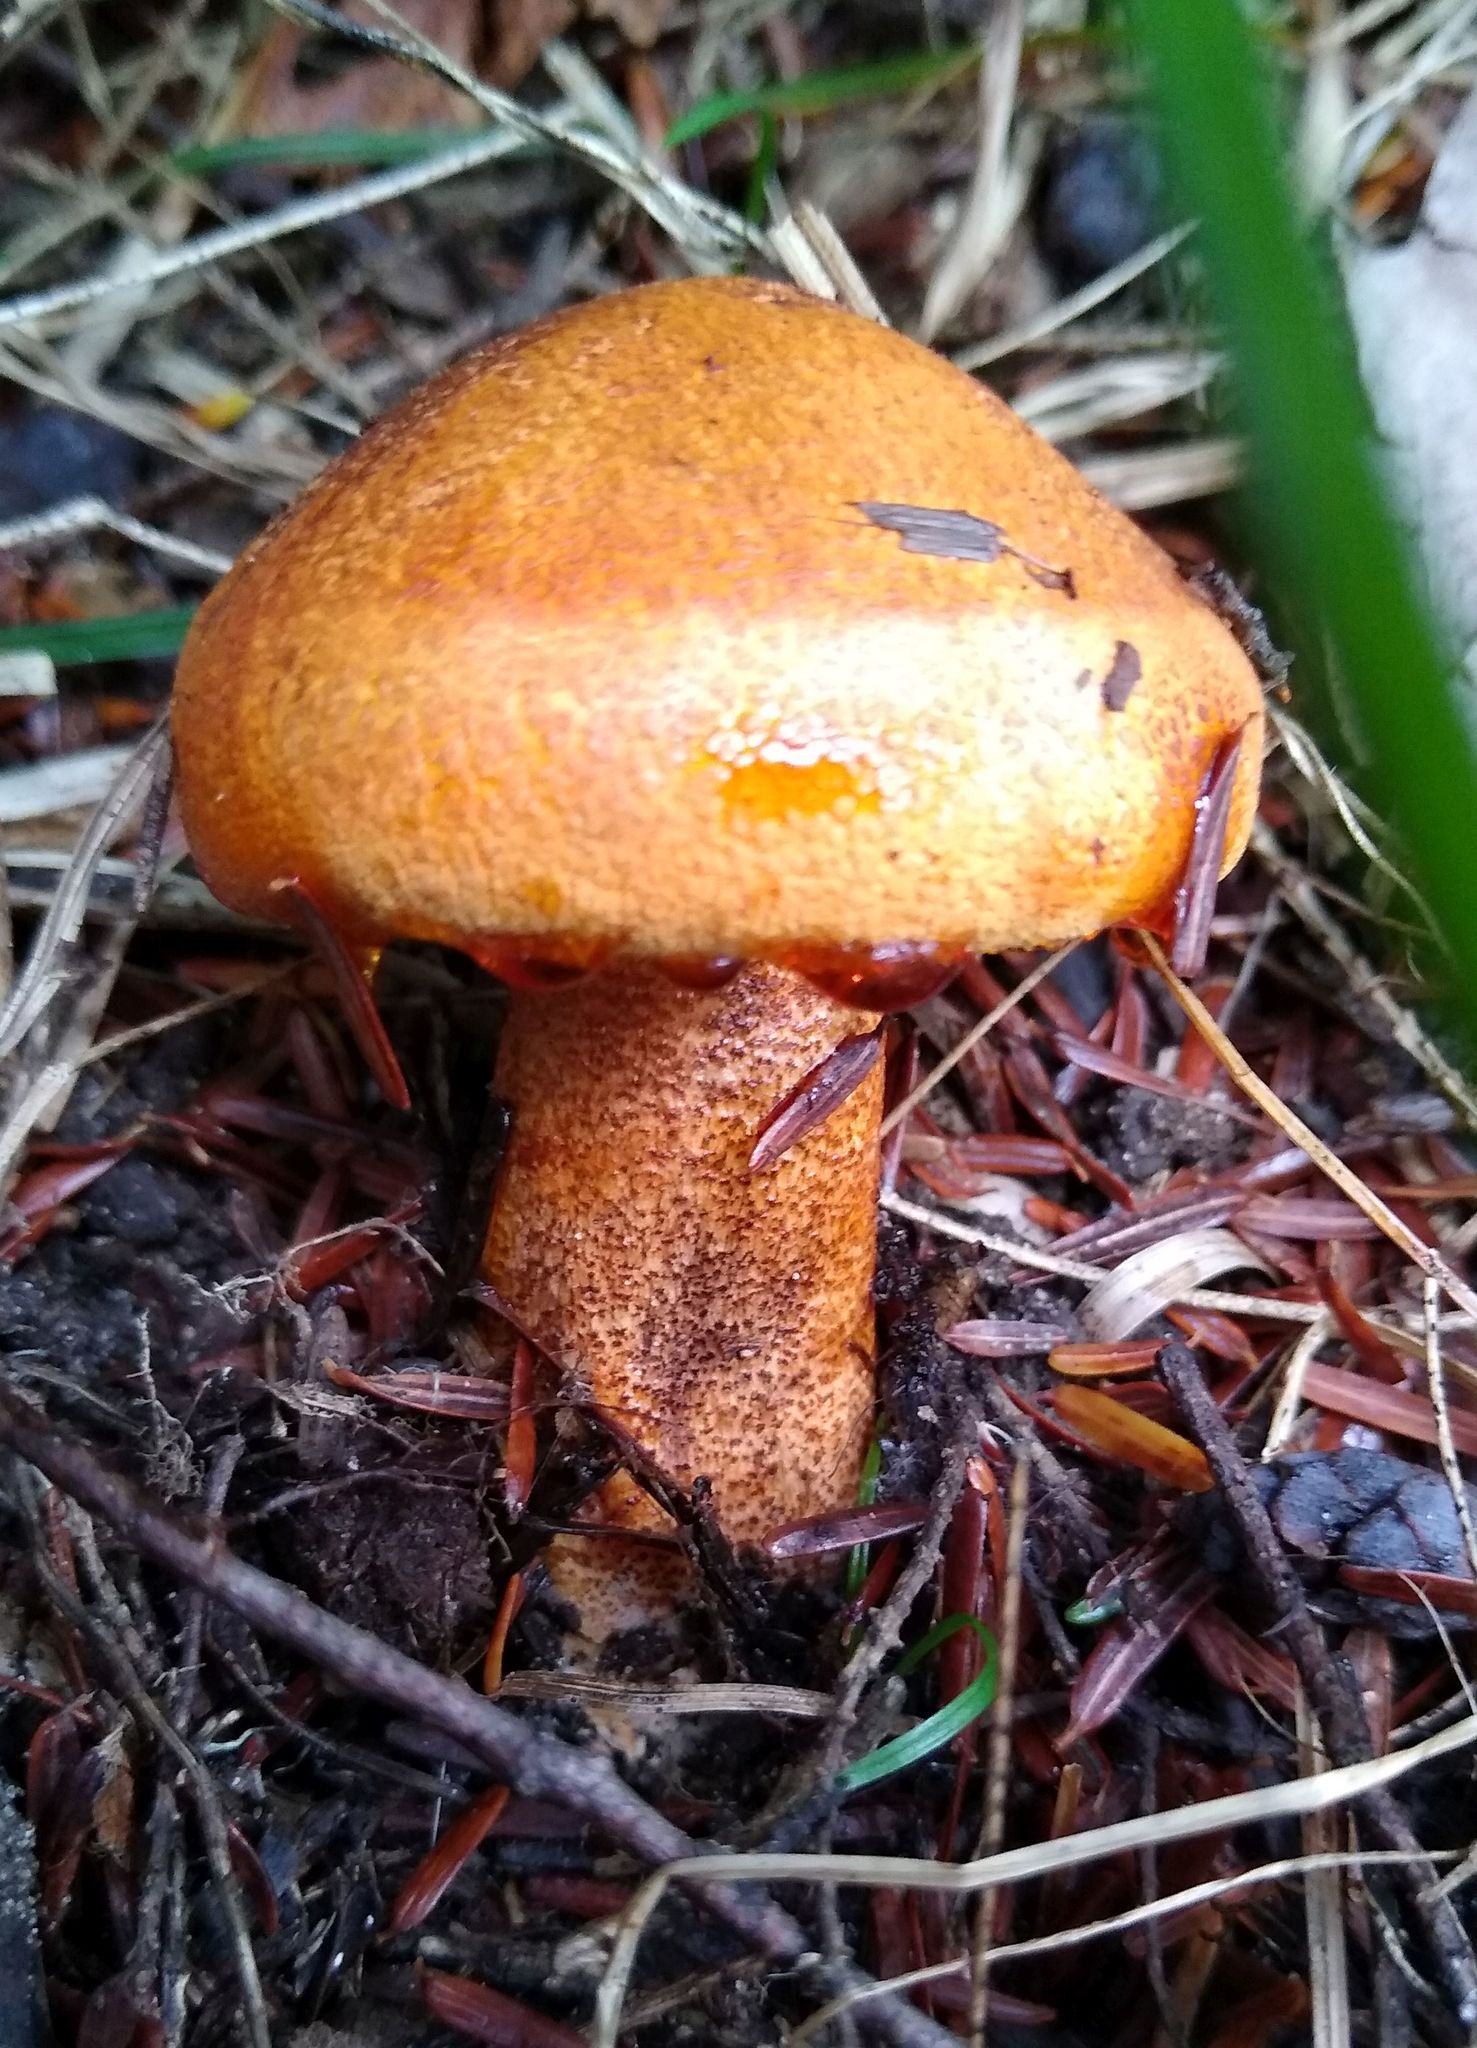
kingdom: Fungi
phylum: Basidiomycota
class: Agaricomycetes
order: Agaricales
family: Tricholomataceae
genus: Tricholoma
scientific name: Tricholoma aurantium
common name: Orange knight
